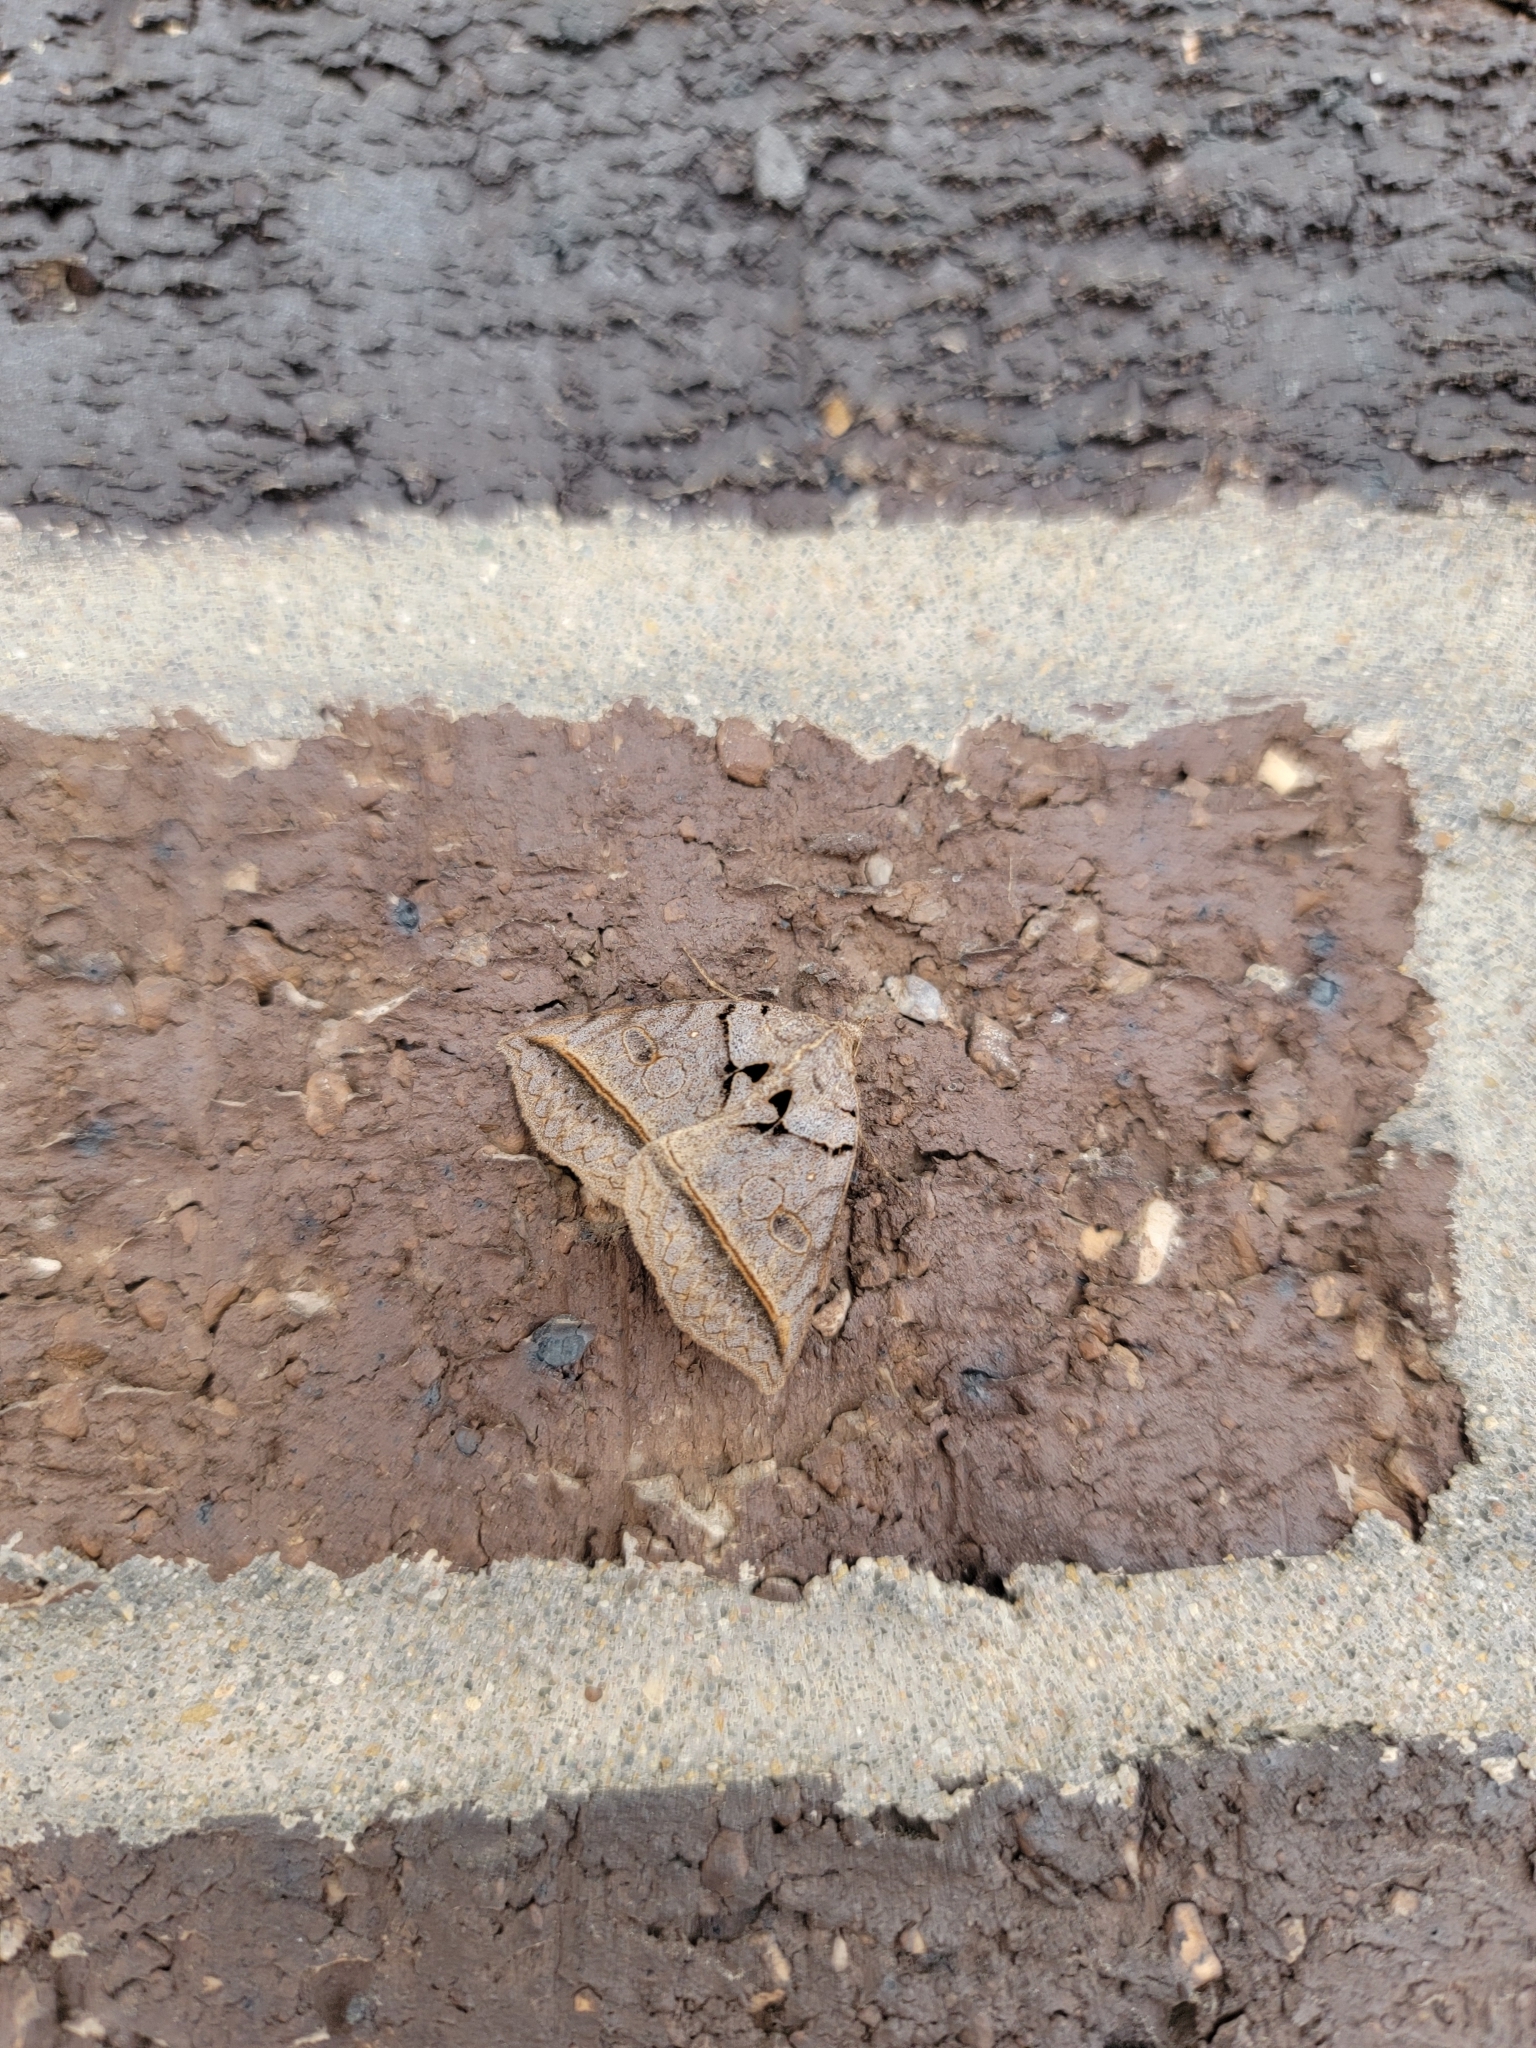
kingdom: Animalia
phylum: Arthropoda
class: Insecta
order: Lepidoptera
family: Erebidae
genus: Celiptera
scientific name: Celiptera frustulum
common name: Black bit moth
